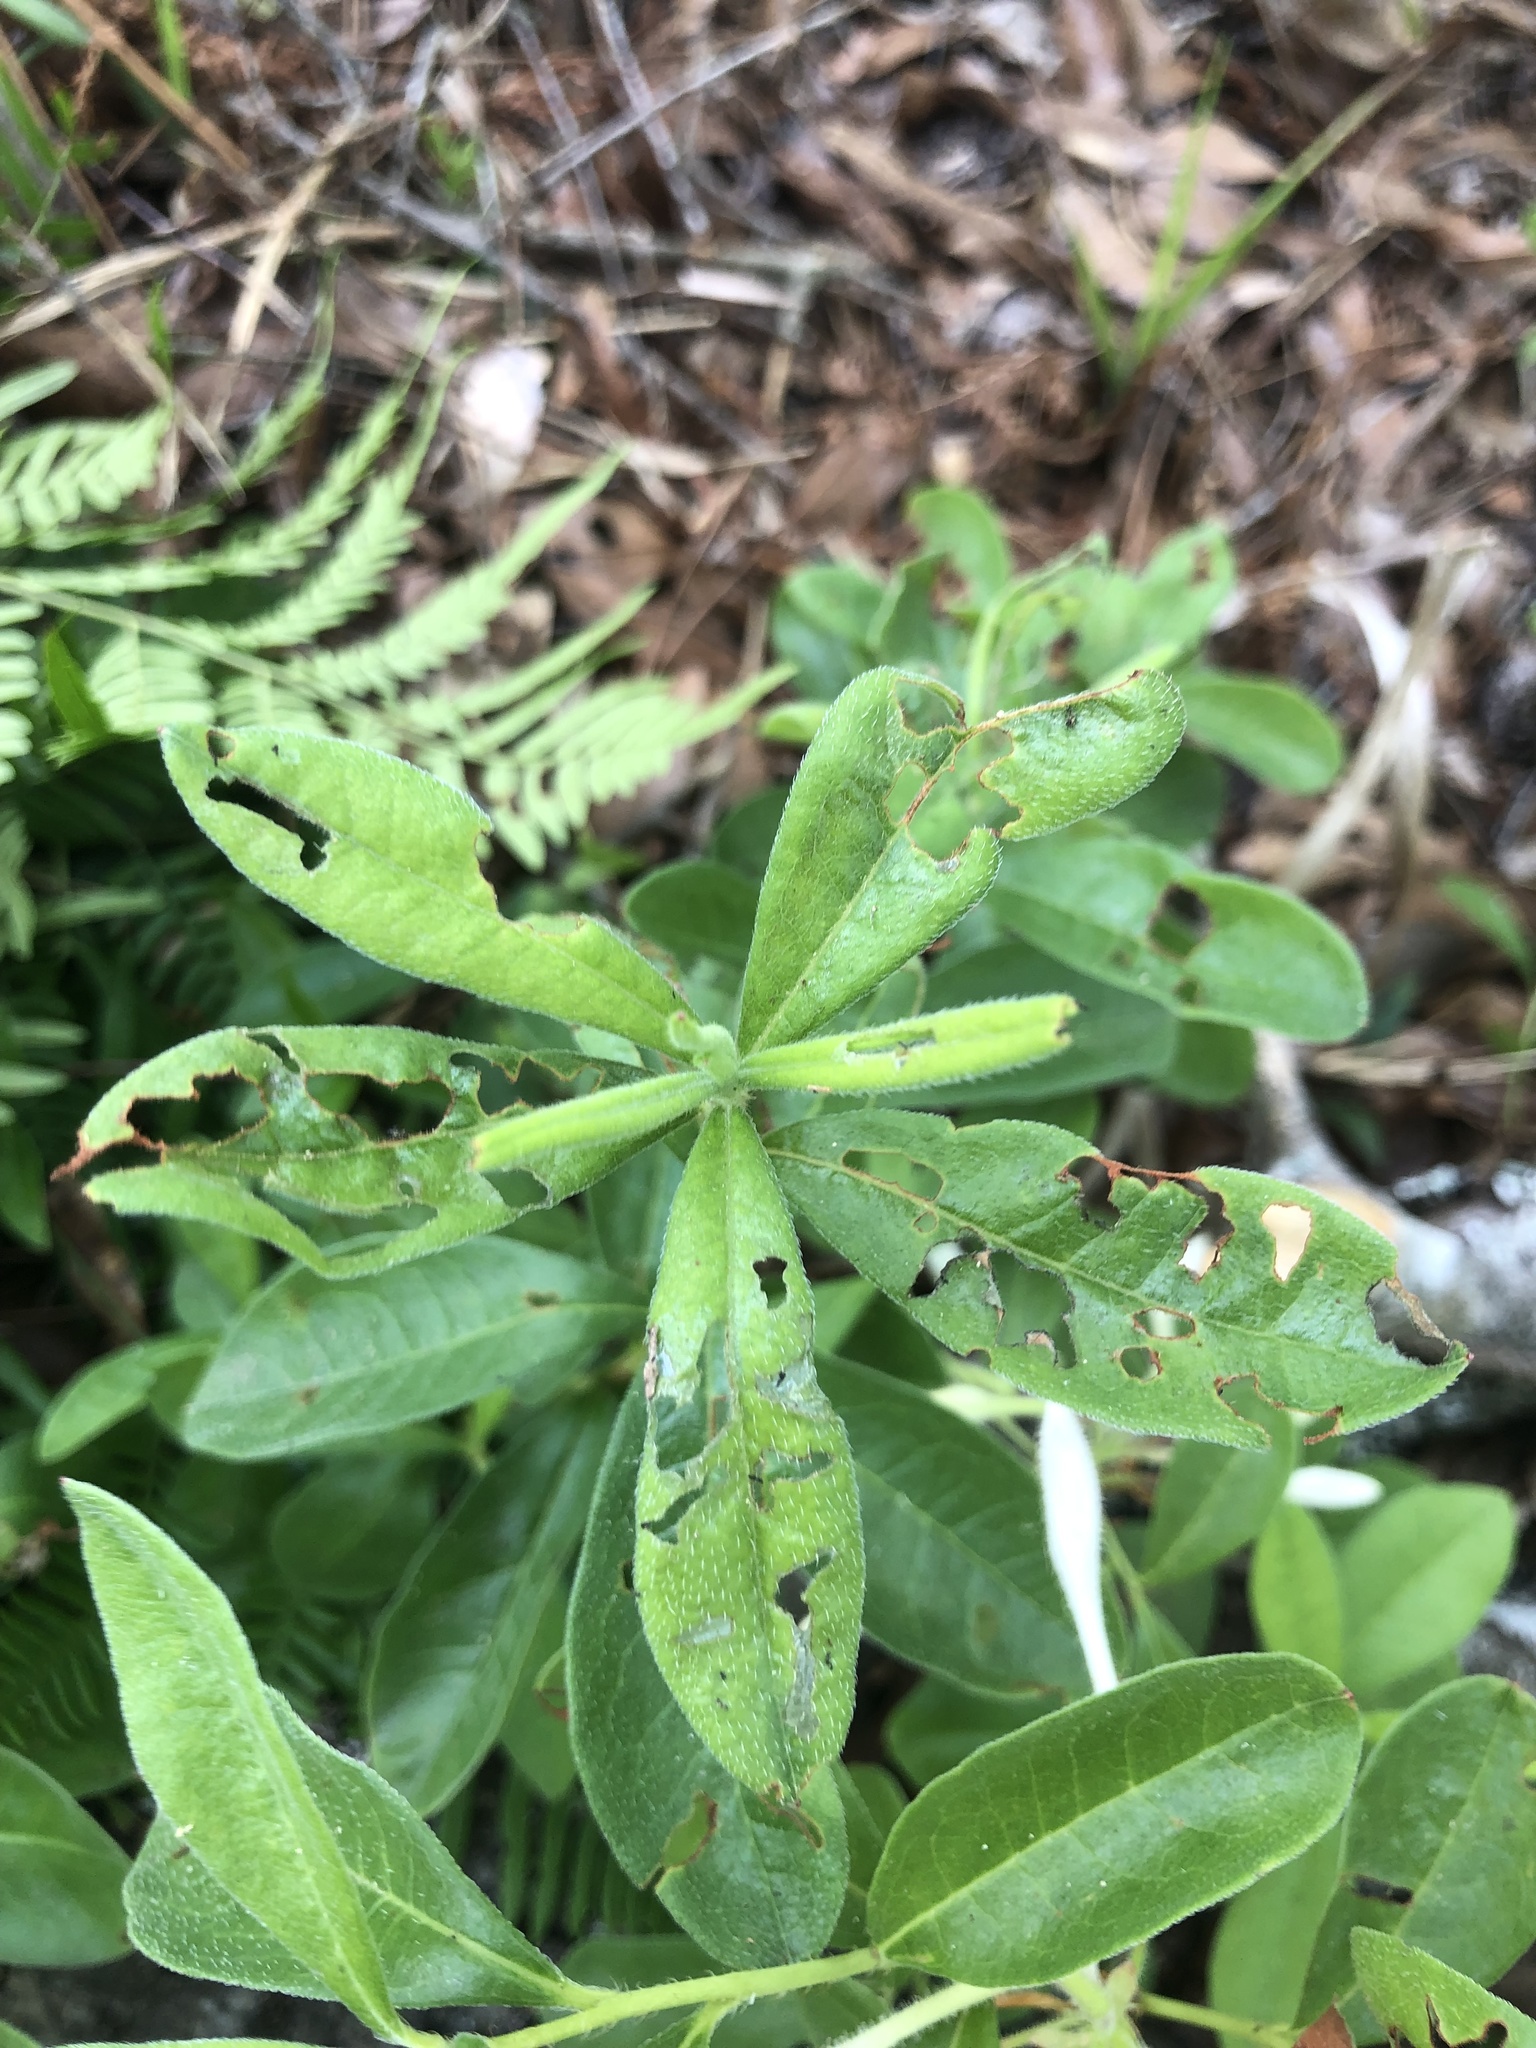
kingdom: Plantae
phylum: Tracheophyta
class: Magnoliopsida
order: Ericales
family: Ericaceae
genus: Rhododendron
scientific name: Rhododendron serrulatum
